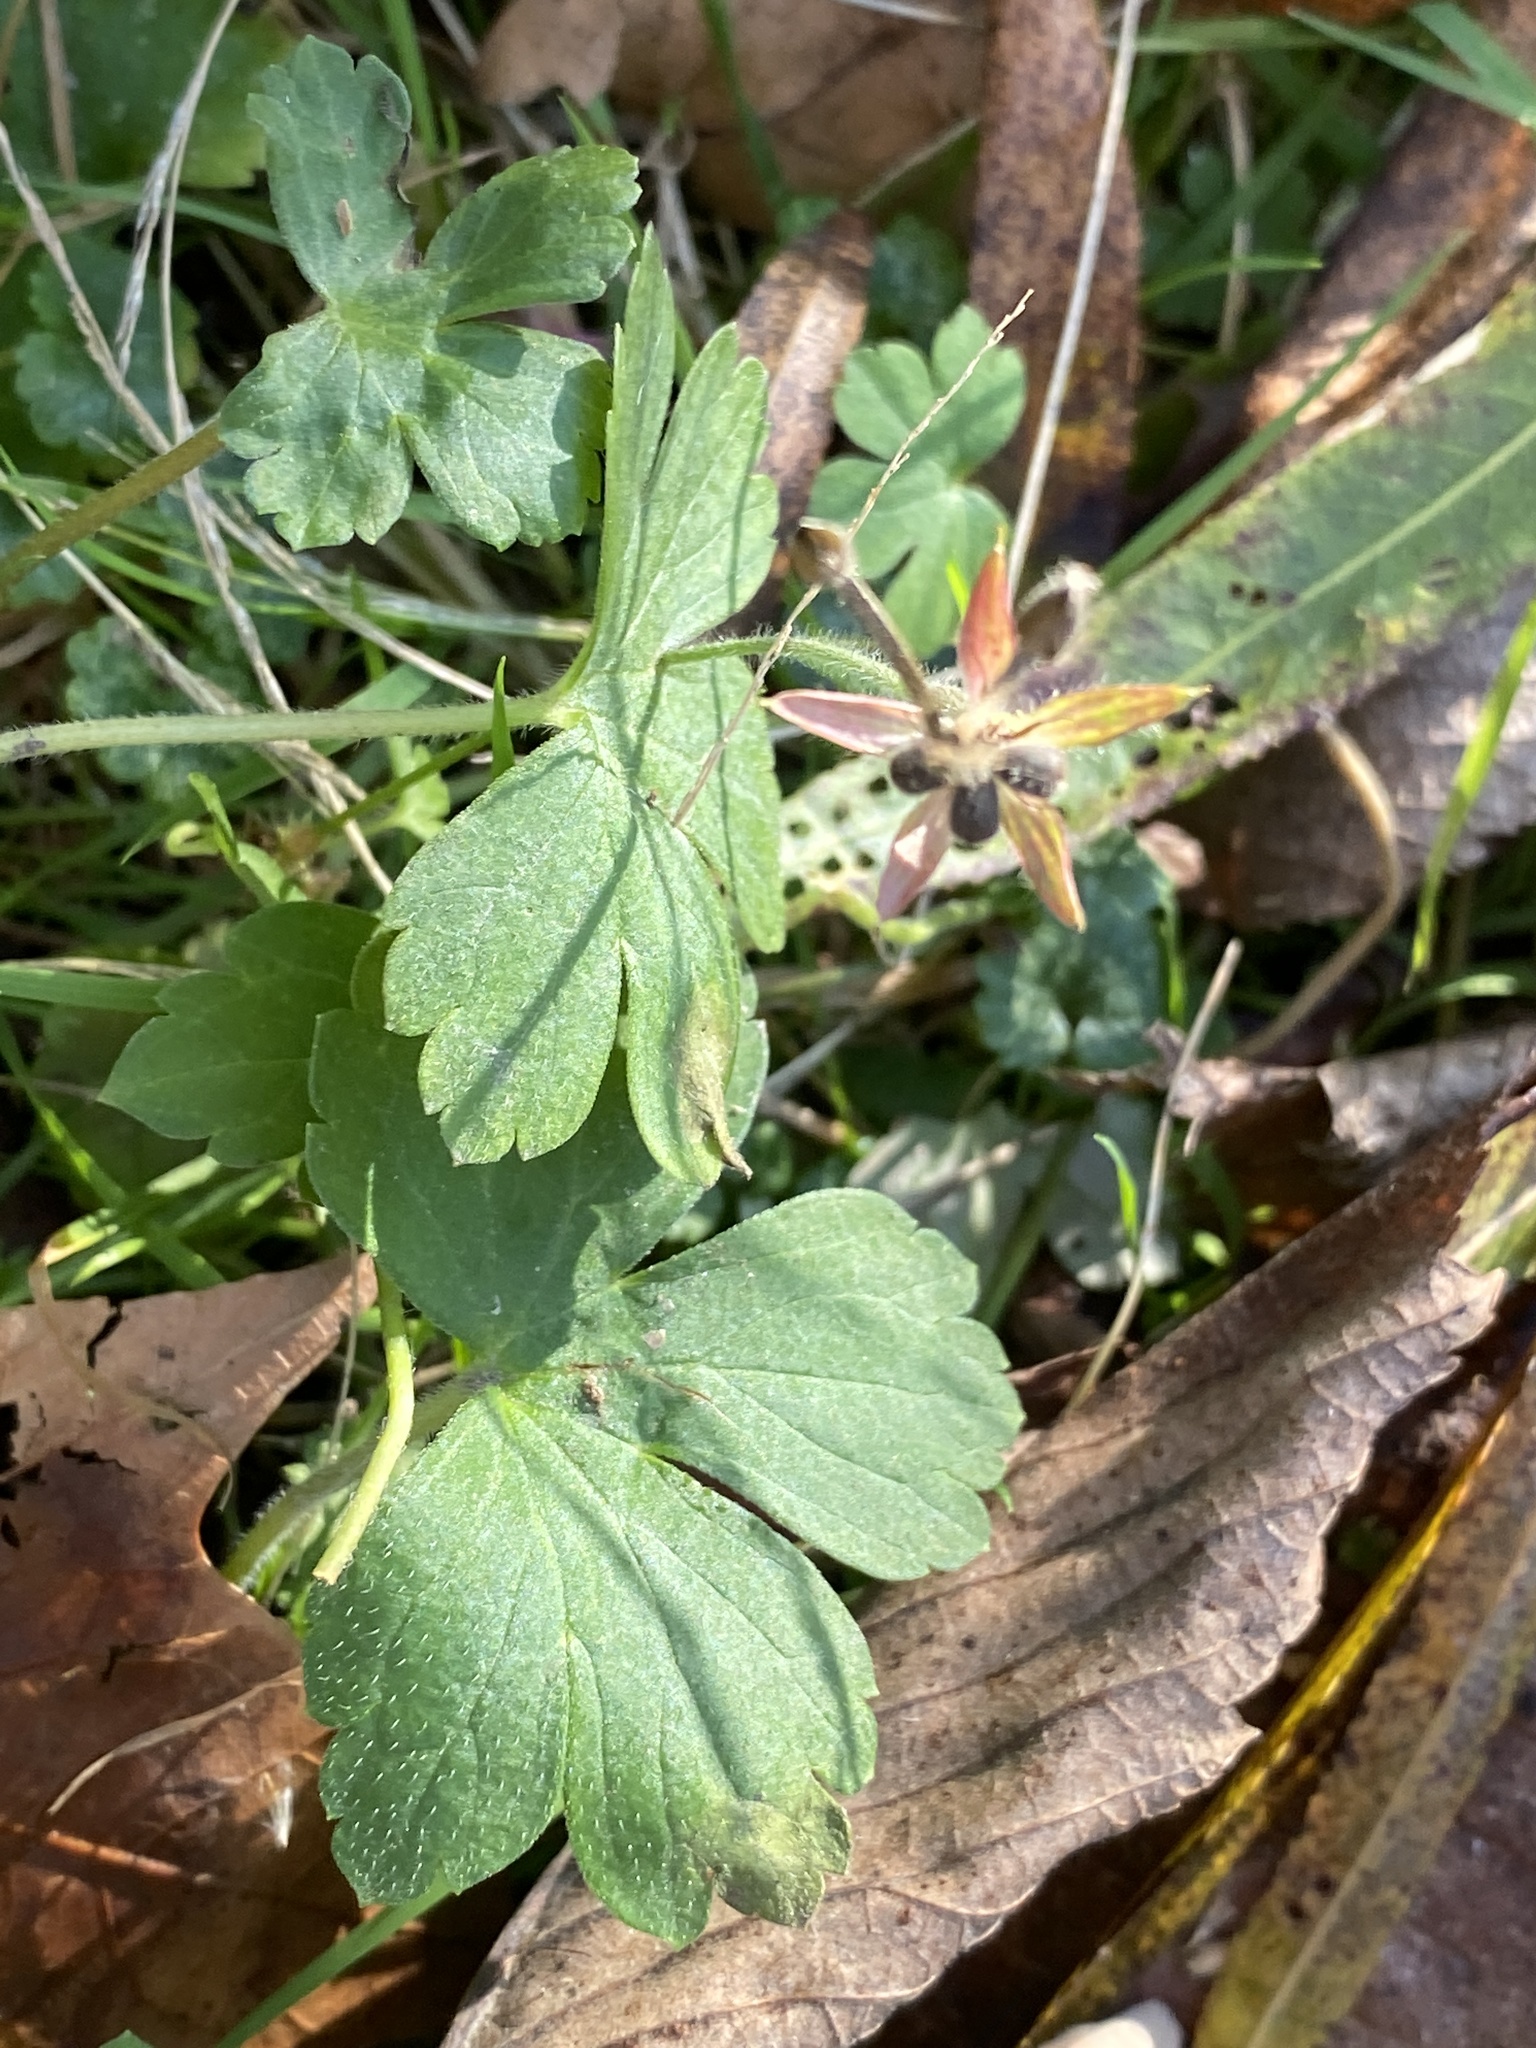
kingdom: Plantae
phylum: Tracheophyta
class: Magnoliopsida
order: Geraniales
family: Geraniaceae
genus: Geranium
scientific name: Geranium thunbergii
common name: Dewdrop crane's-bill
